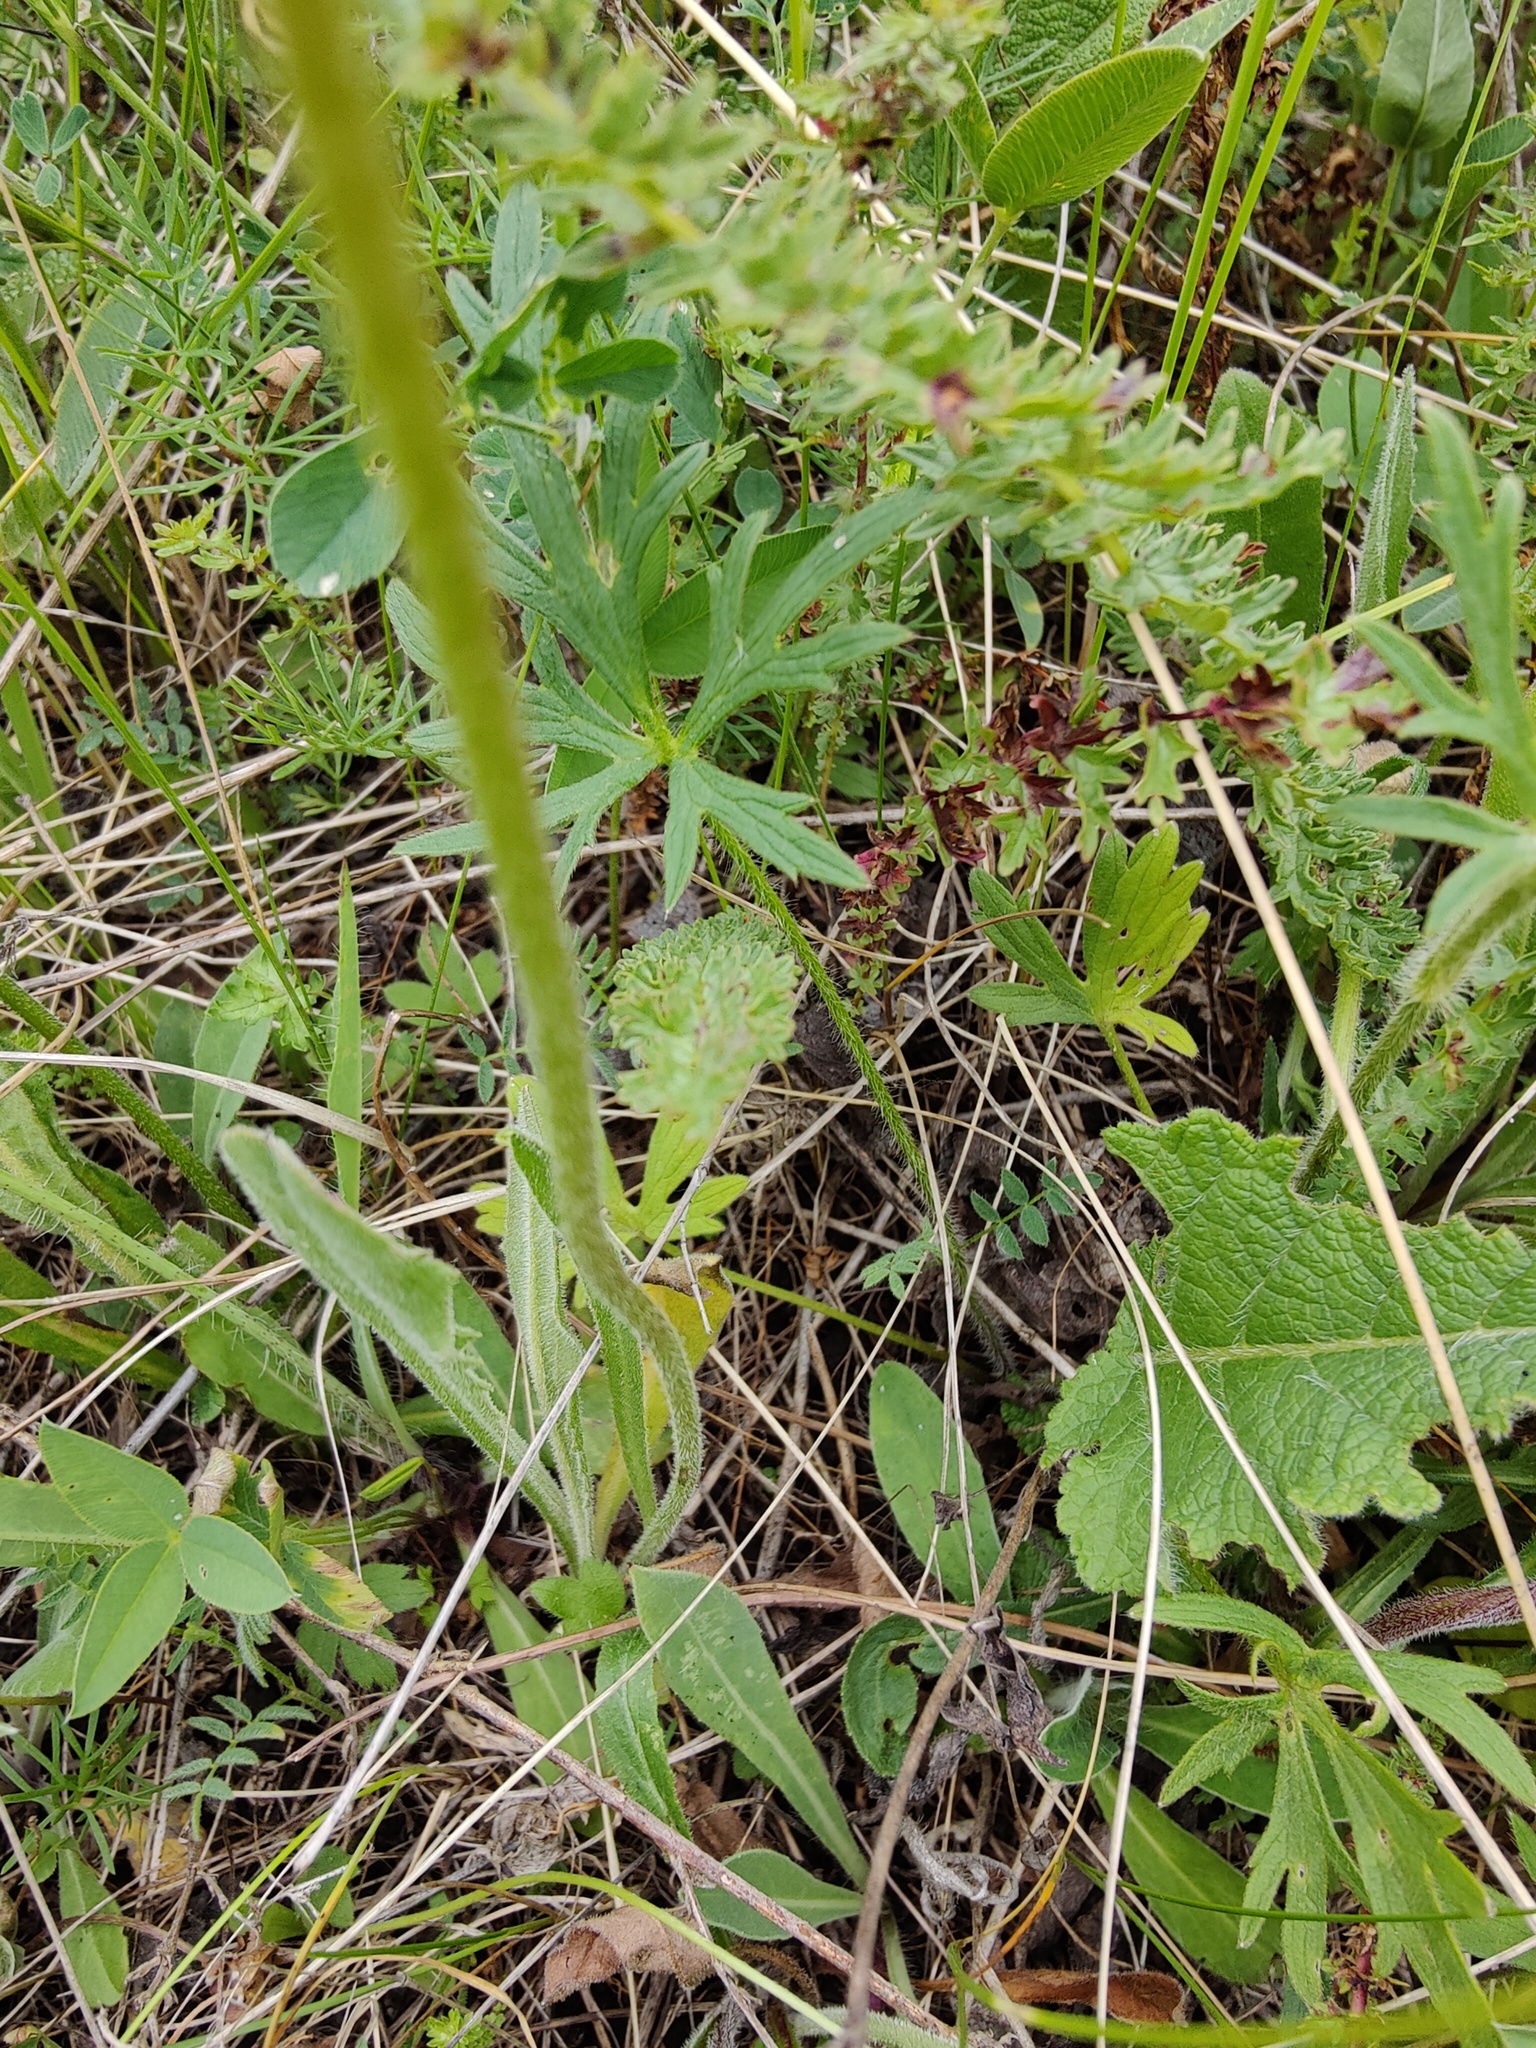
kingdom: Plantae
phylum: Tracheophyta
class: Magnoliopsida
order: Asterales
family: Asteraceae
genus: Leontodon
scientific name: Leontodon hispidus
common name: Rough hawkbit
